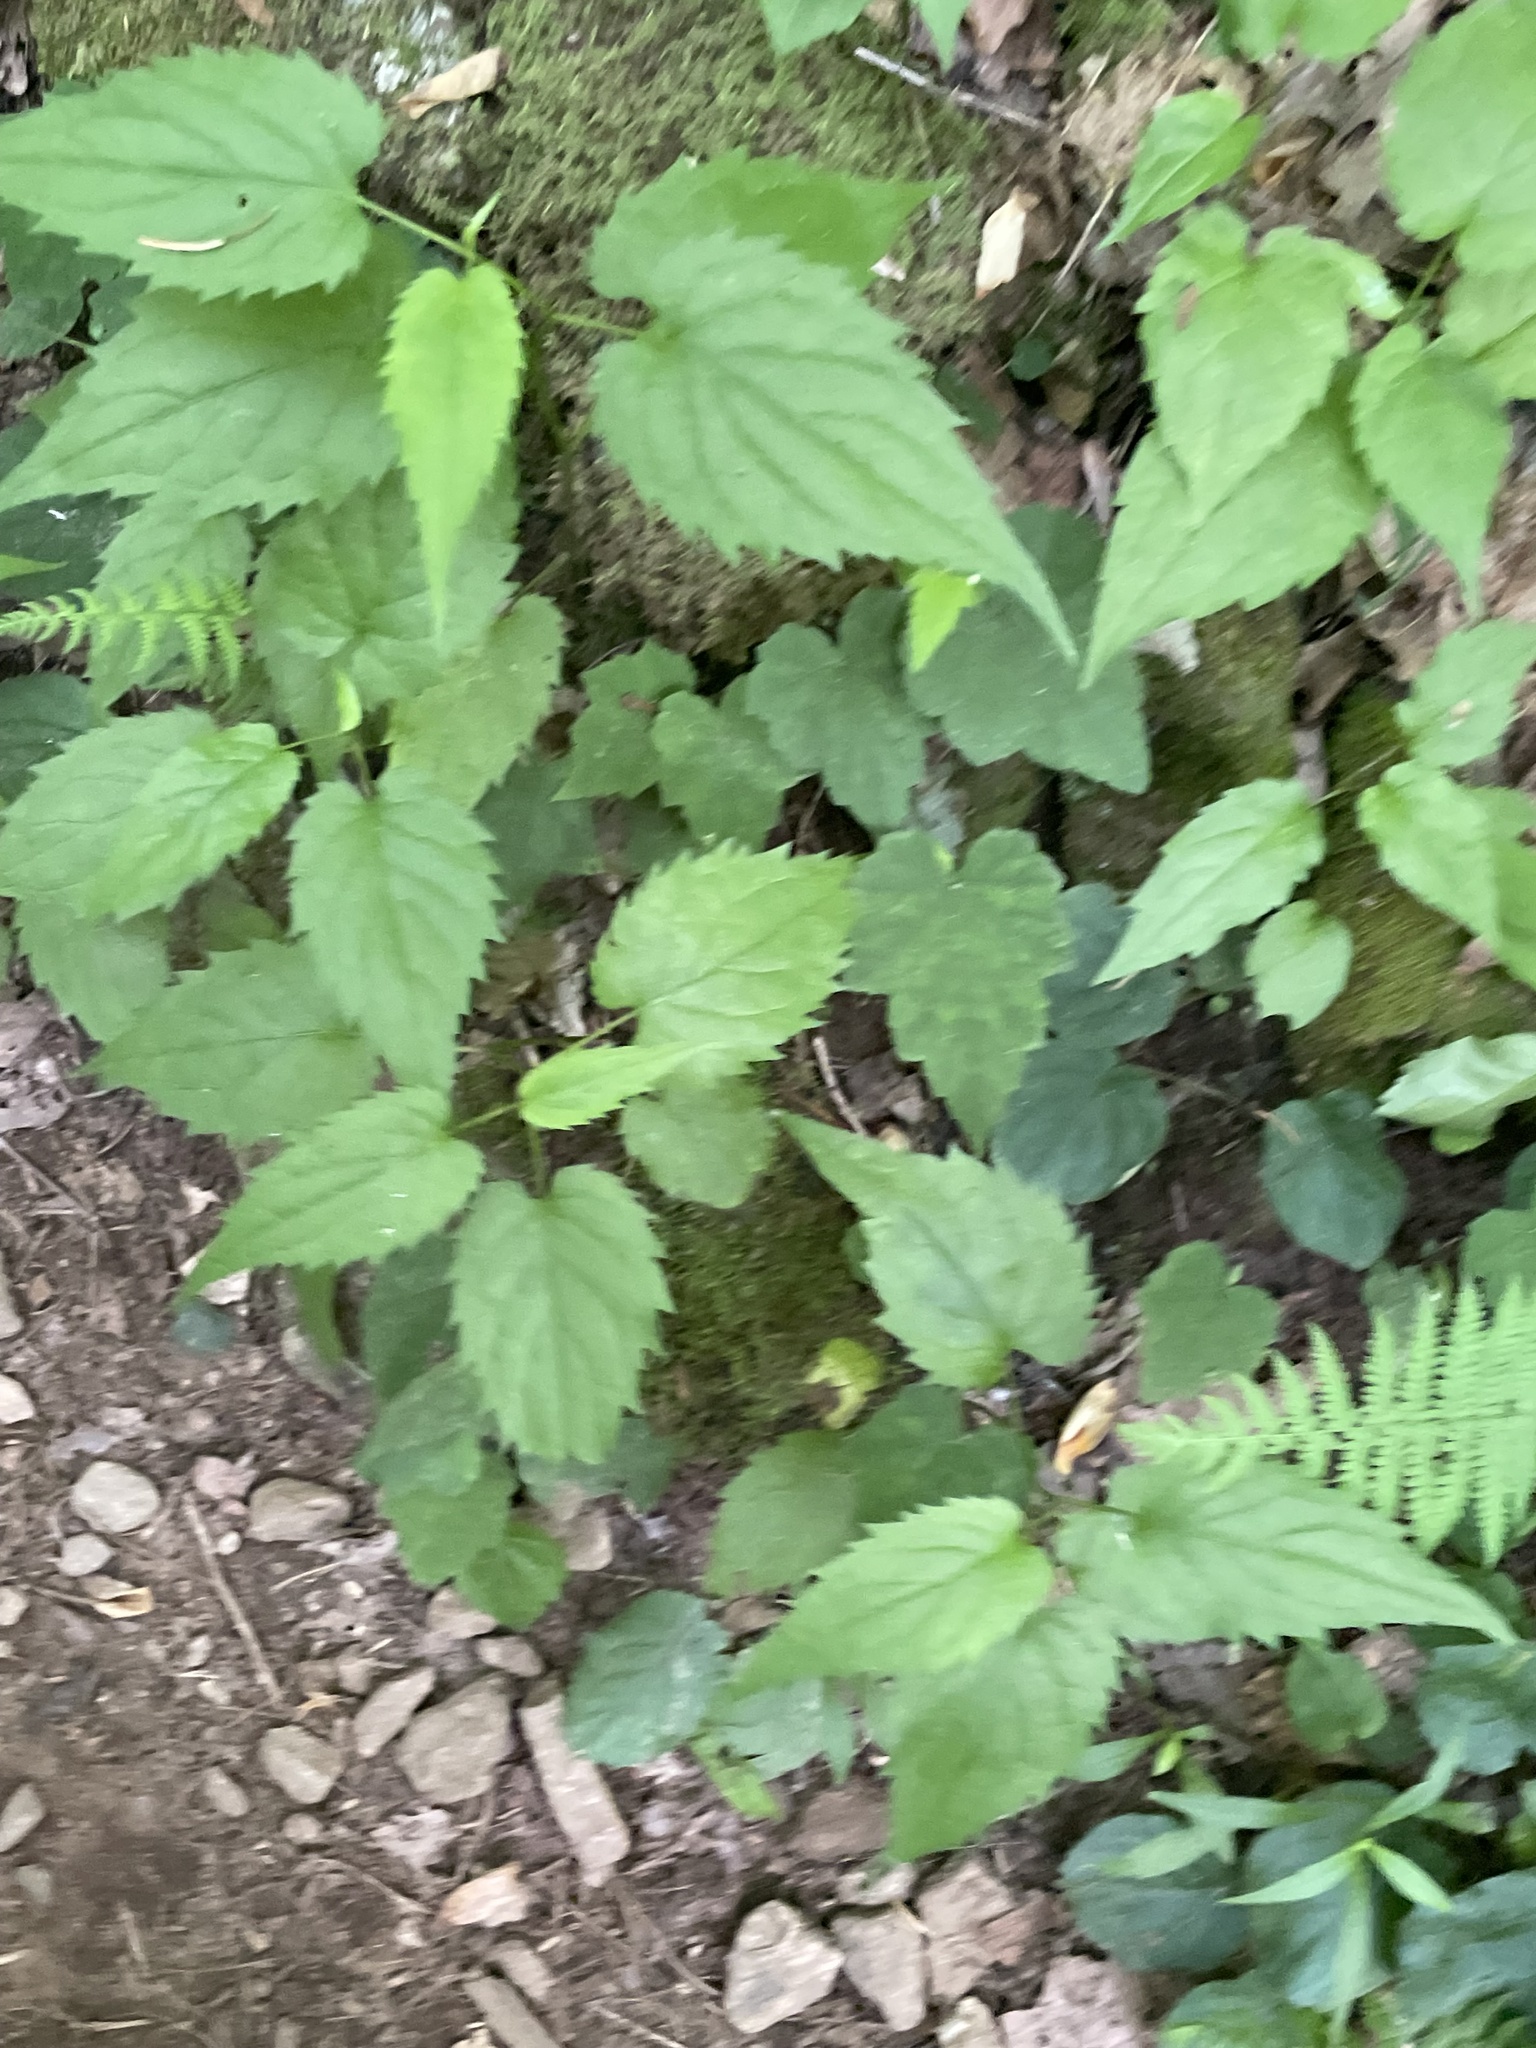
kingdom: Plantae
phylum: Tracheophyta
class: Magnoliopsida
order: Asterales
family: Asteraceae
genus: Eurybia
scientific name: Eurybia divaricata
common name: White wood aster
